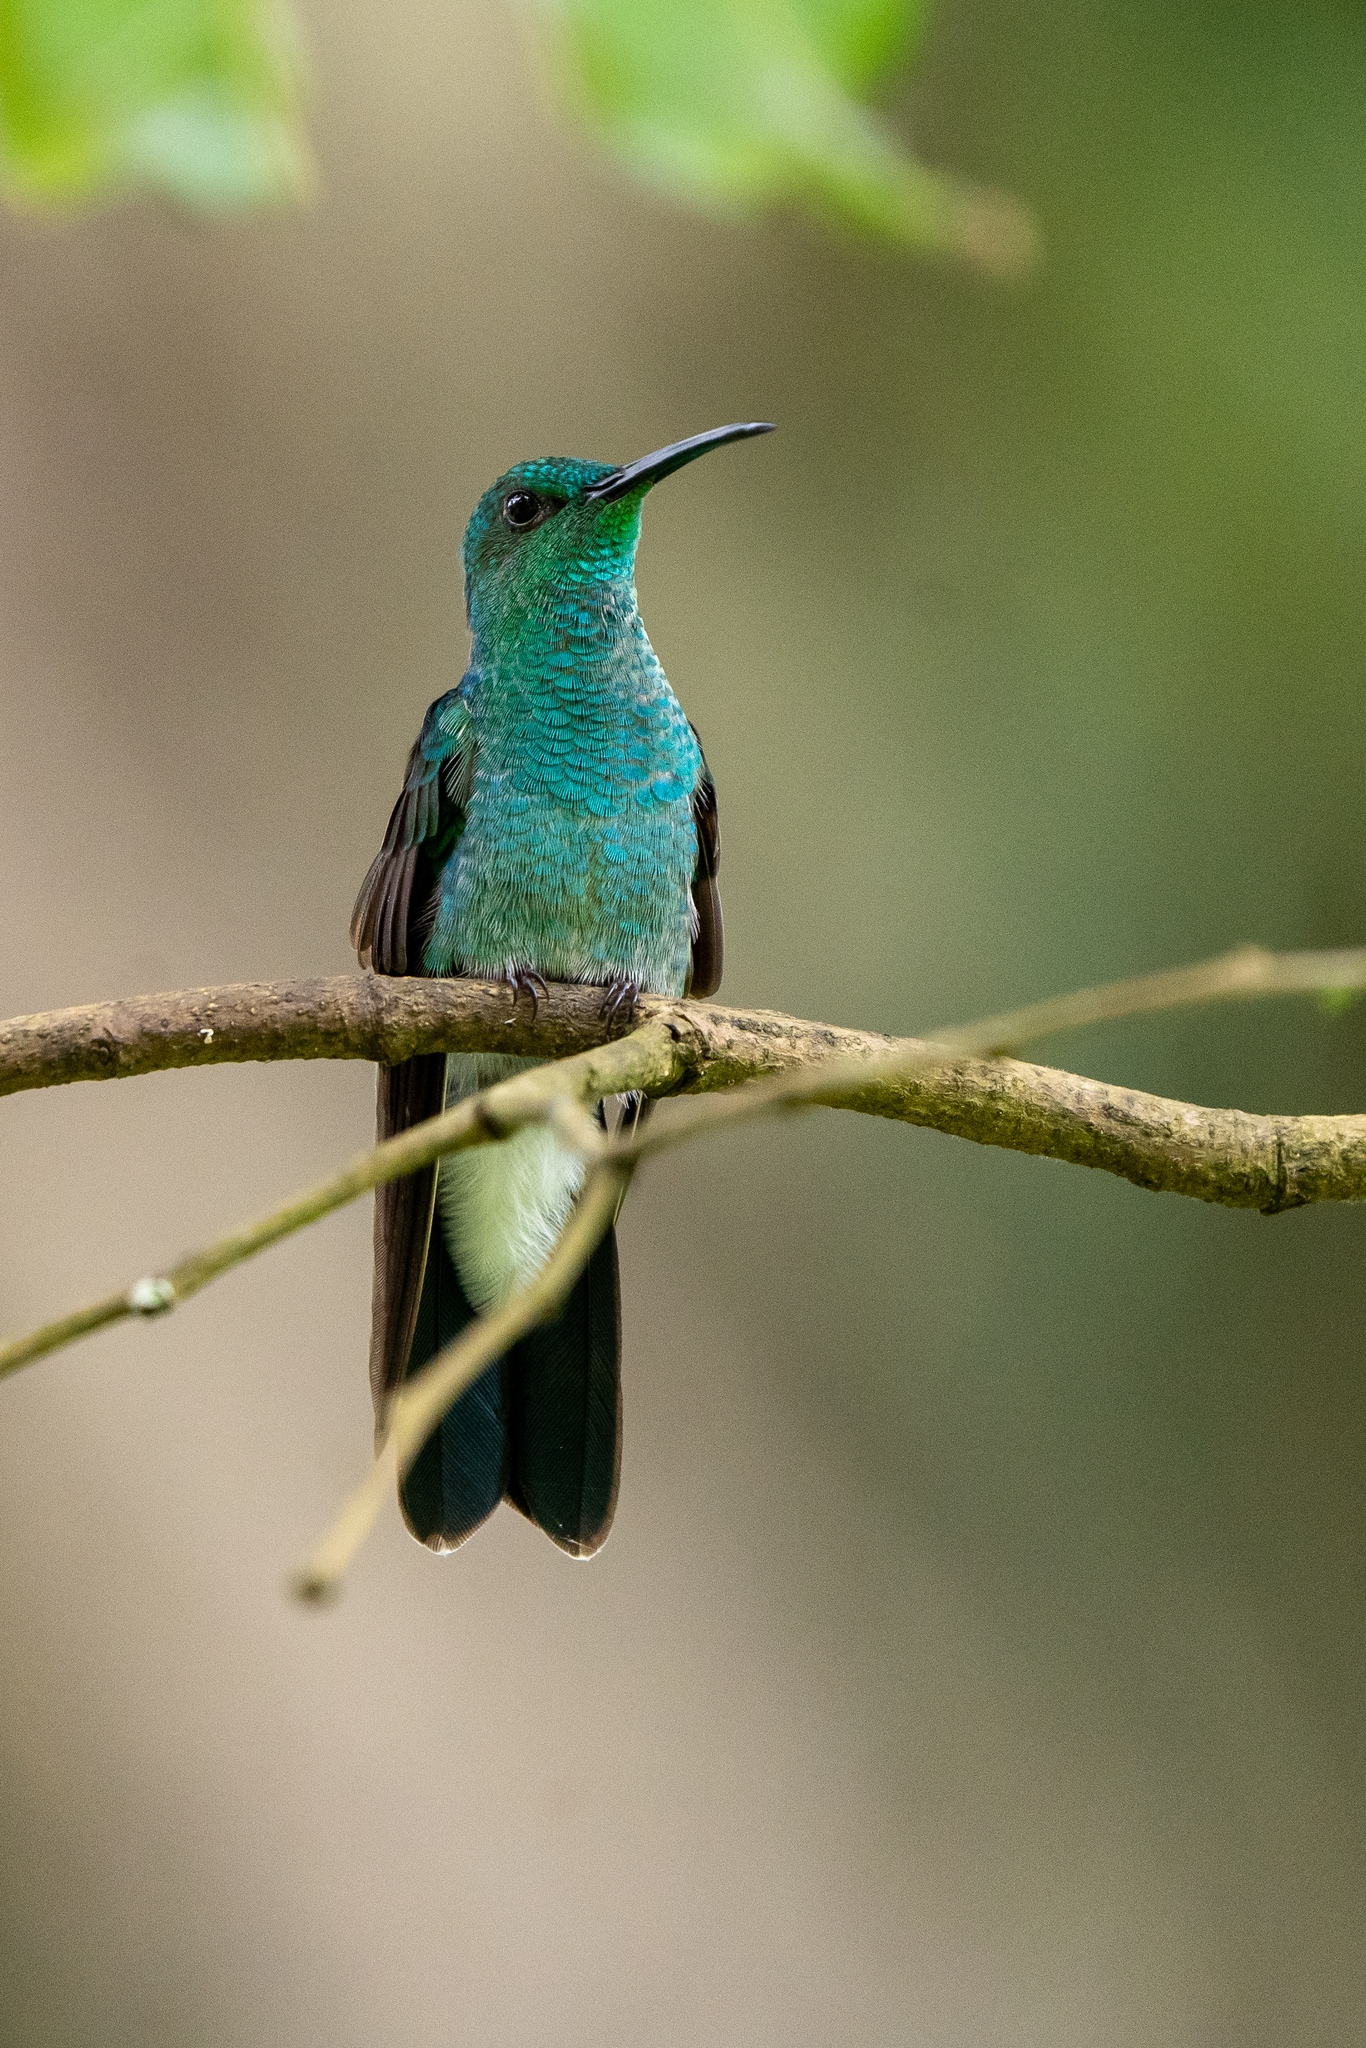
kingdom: Animalia
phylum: Chordata
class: Aves
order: Apodiformes
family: Trochilidae
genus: Chalybura
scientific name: Chalybura buffonii
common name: White-vented plumeleteer
